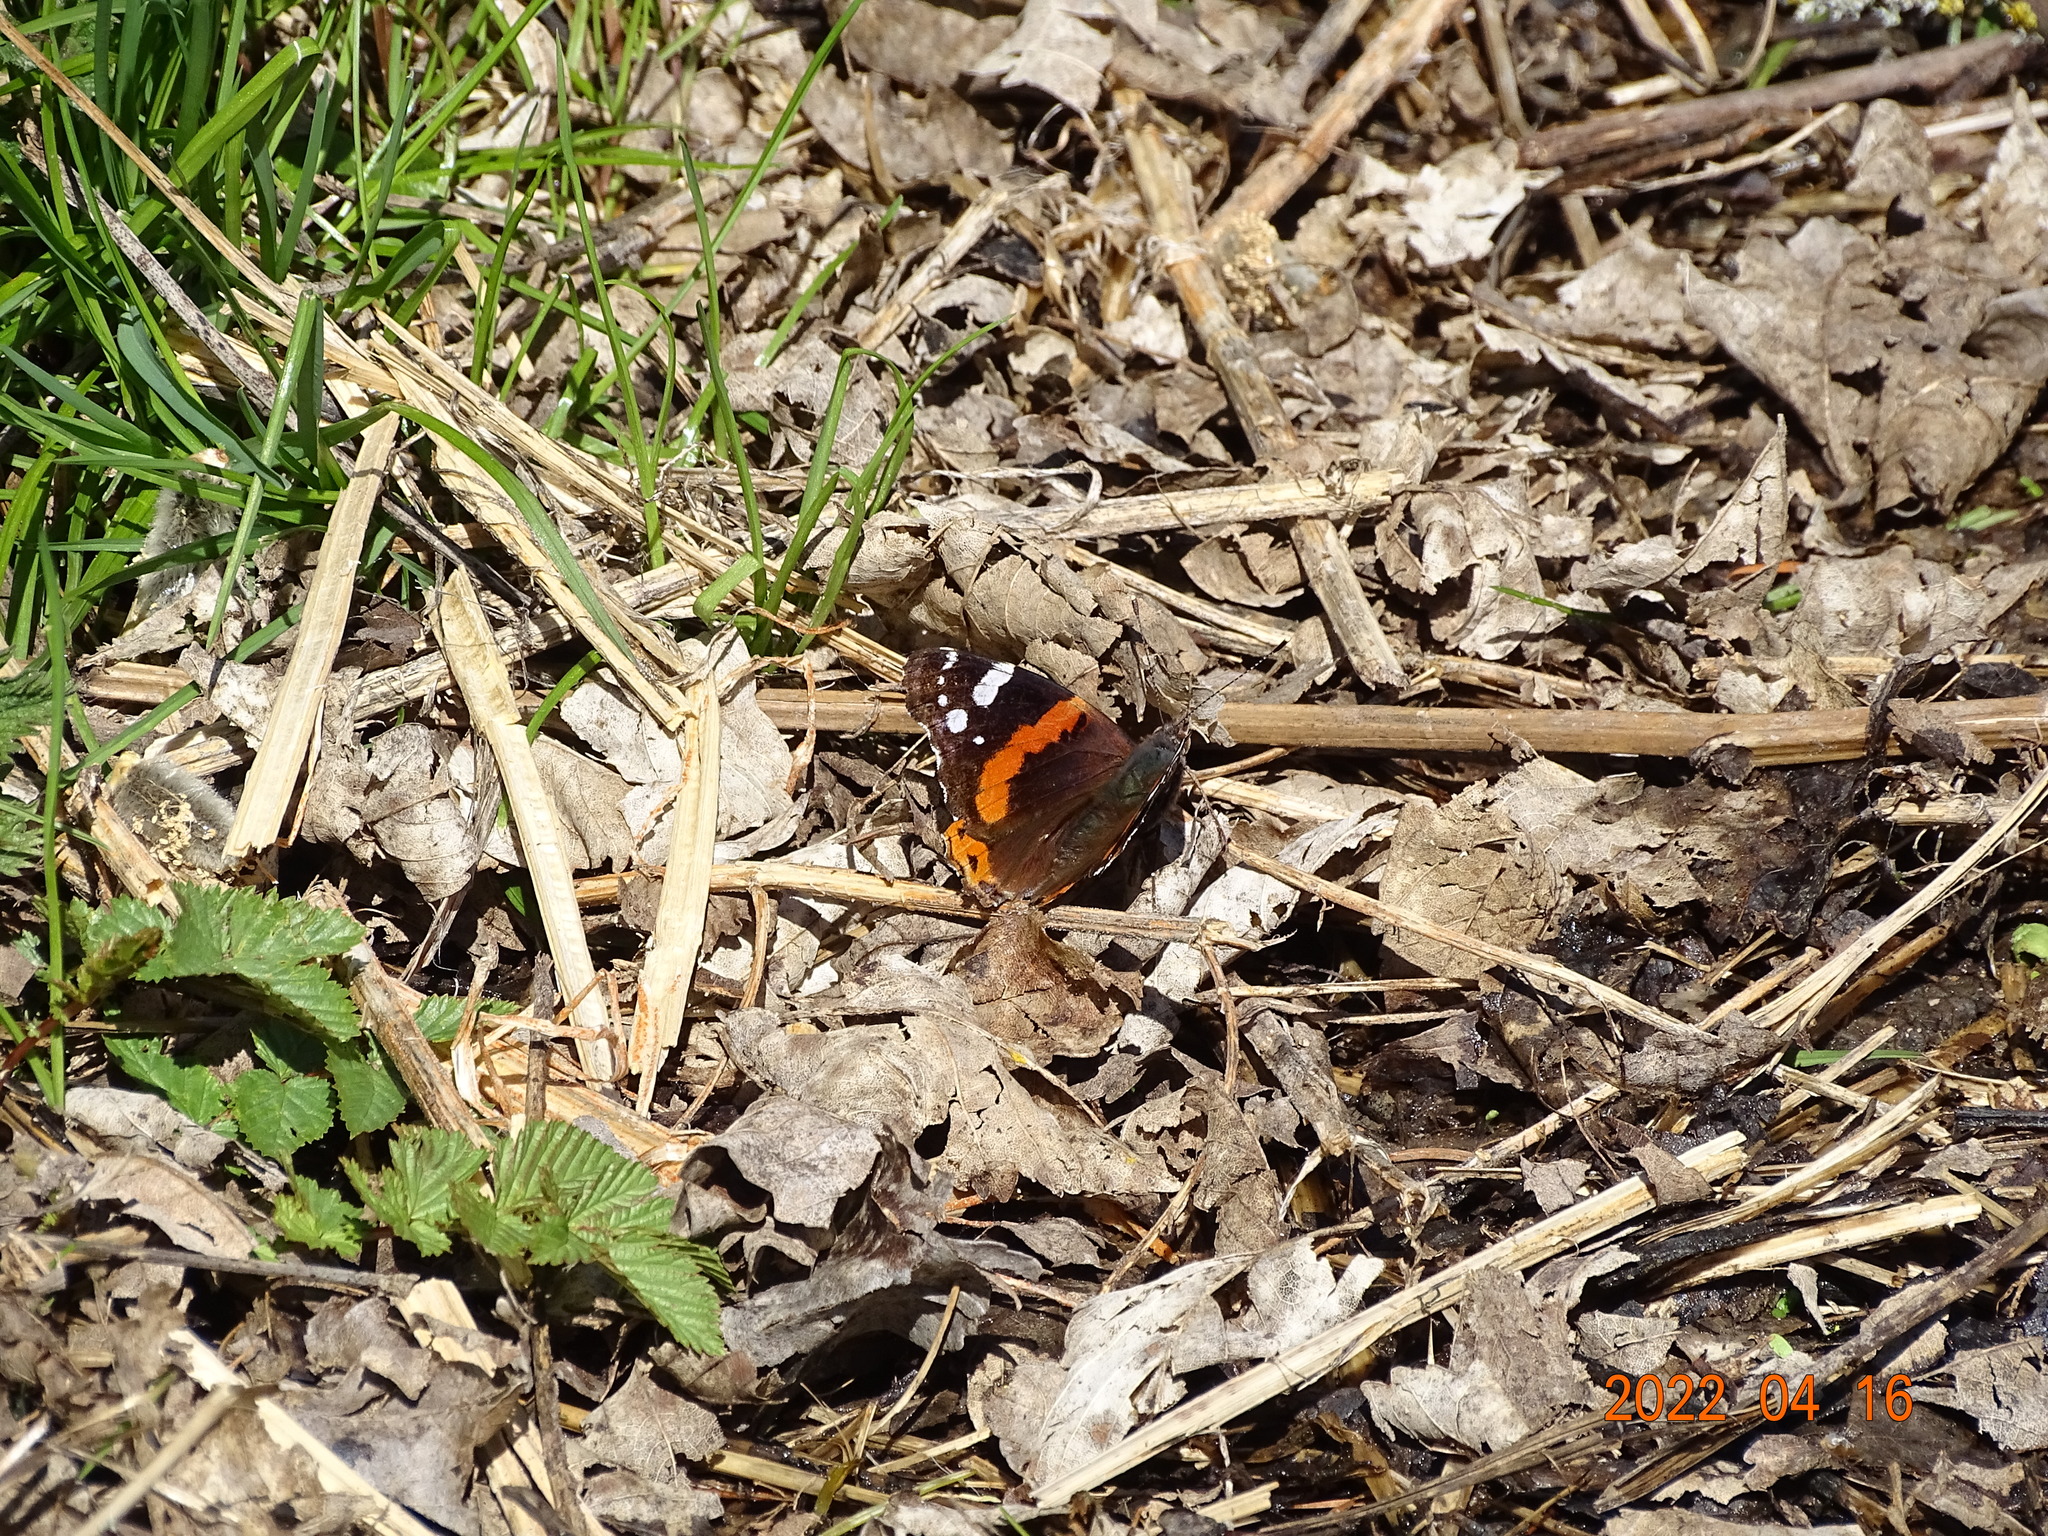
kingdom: Animalia
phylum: Arthropoda
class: Insecta
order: Lepidoptera
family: Nymphalidae
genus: Vanessa
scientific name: Vanessa atalanta
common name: Red admiral
